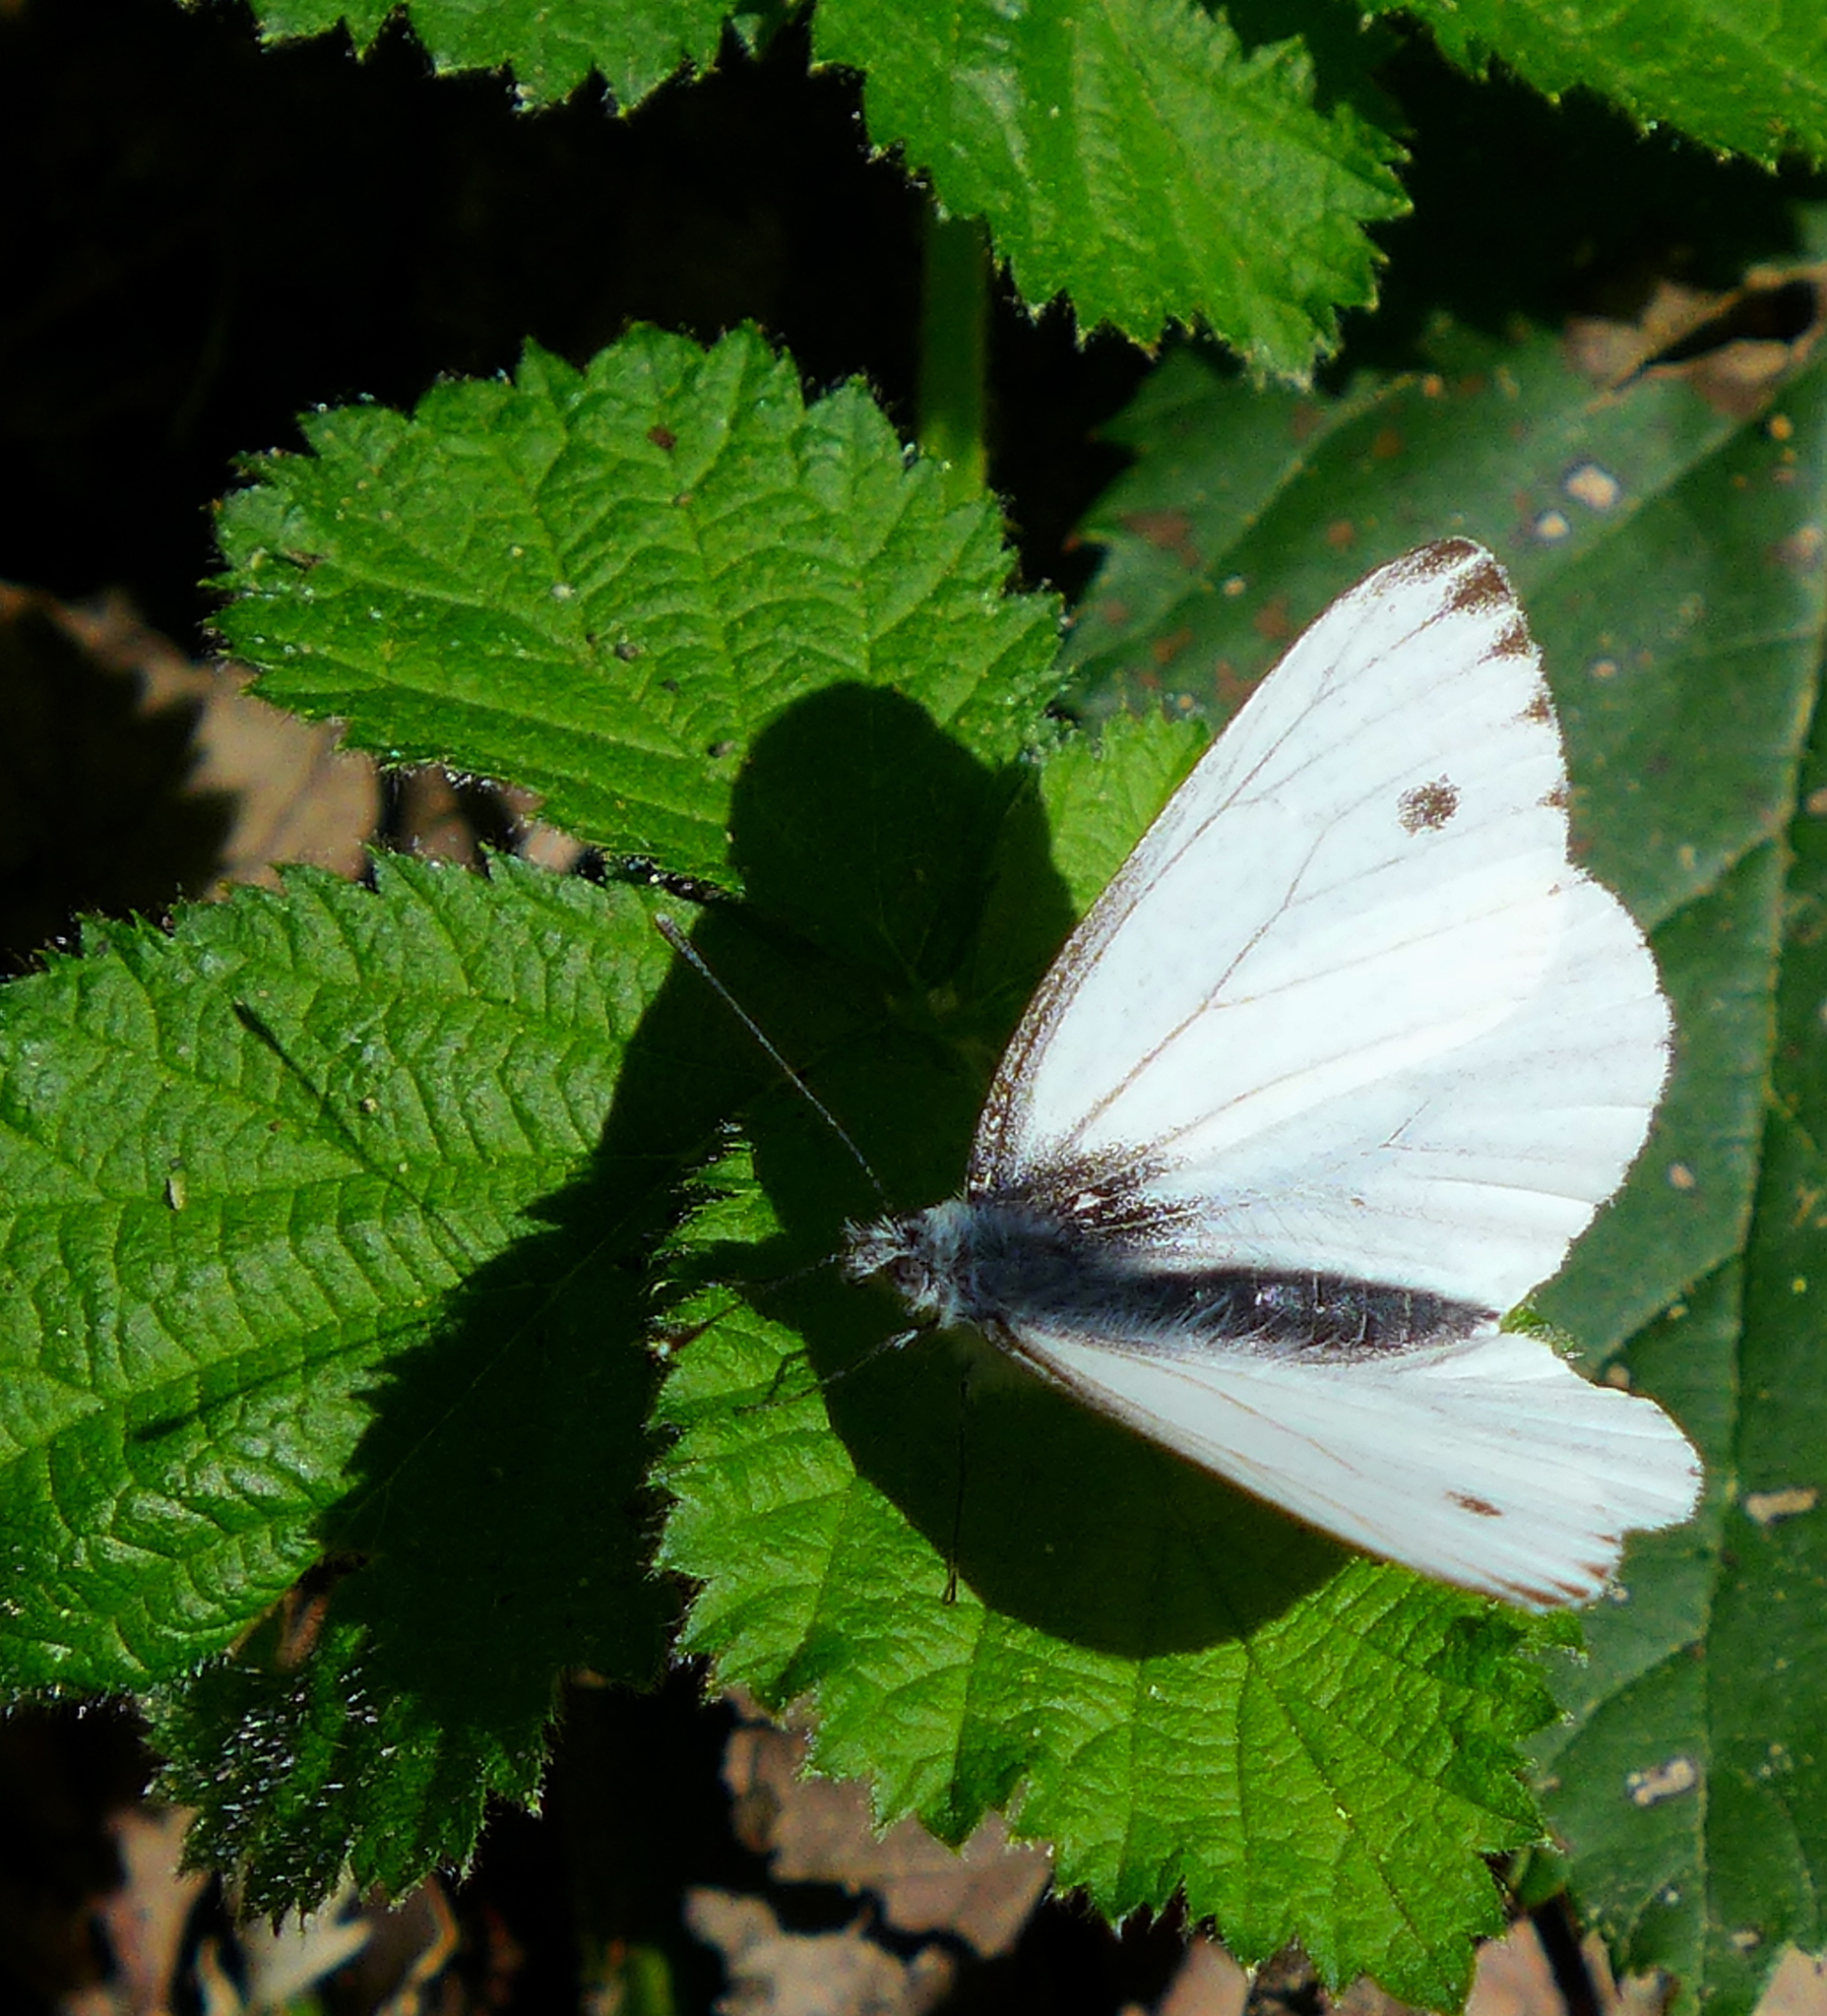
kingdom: Animalia
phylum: Arthropoda
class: Insecta
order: Lepidoptera
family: Pieridae
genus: Pieris
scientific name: Pieris marginalis
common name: Margined white
